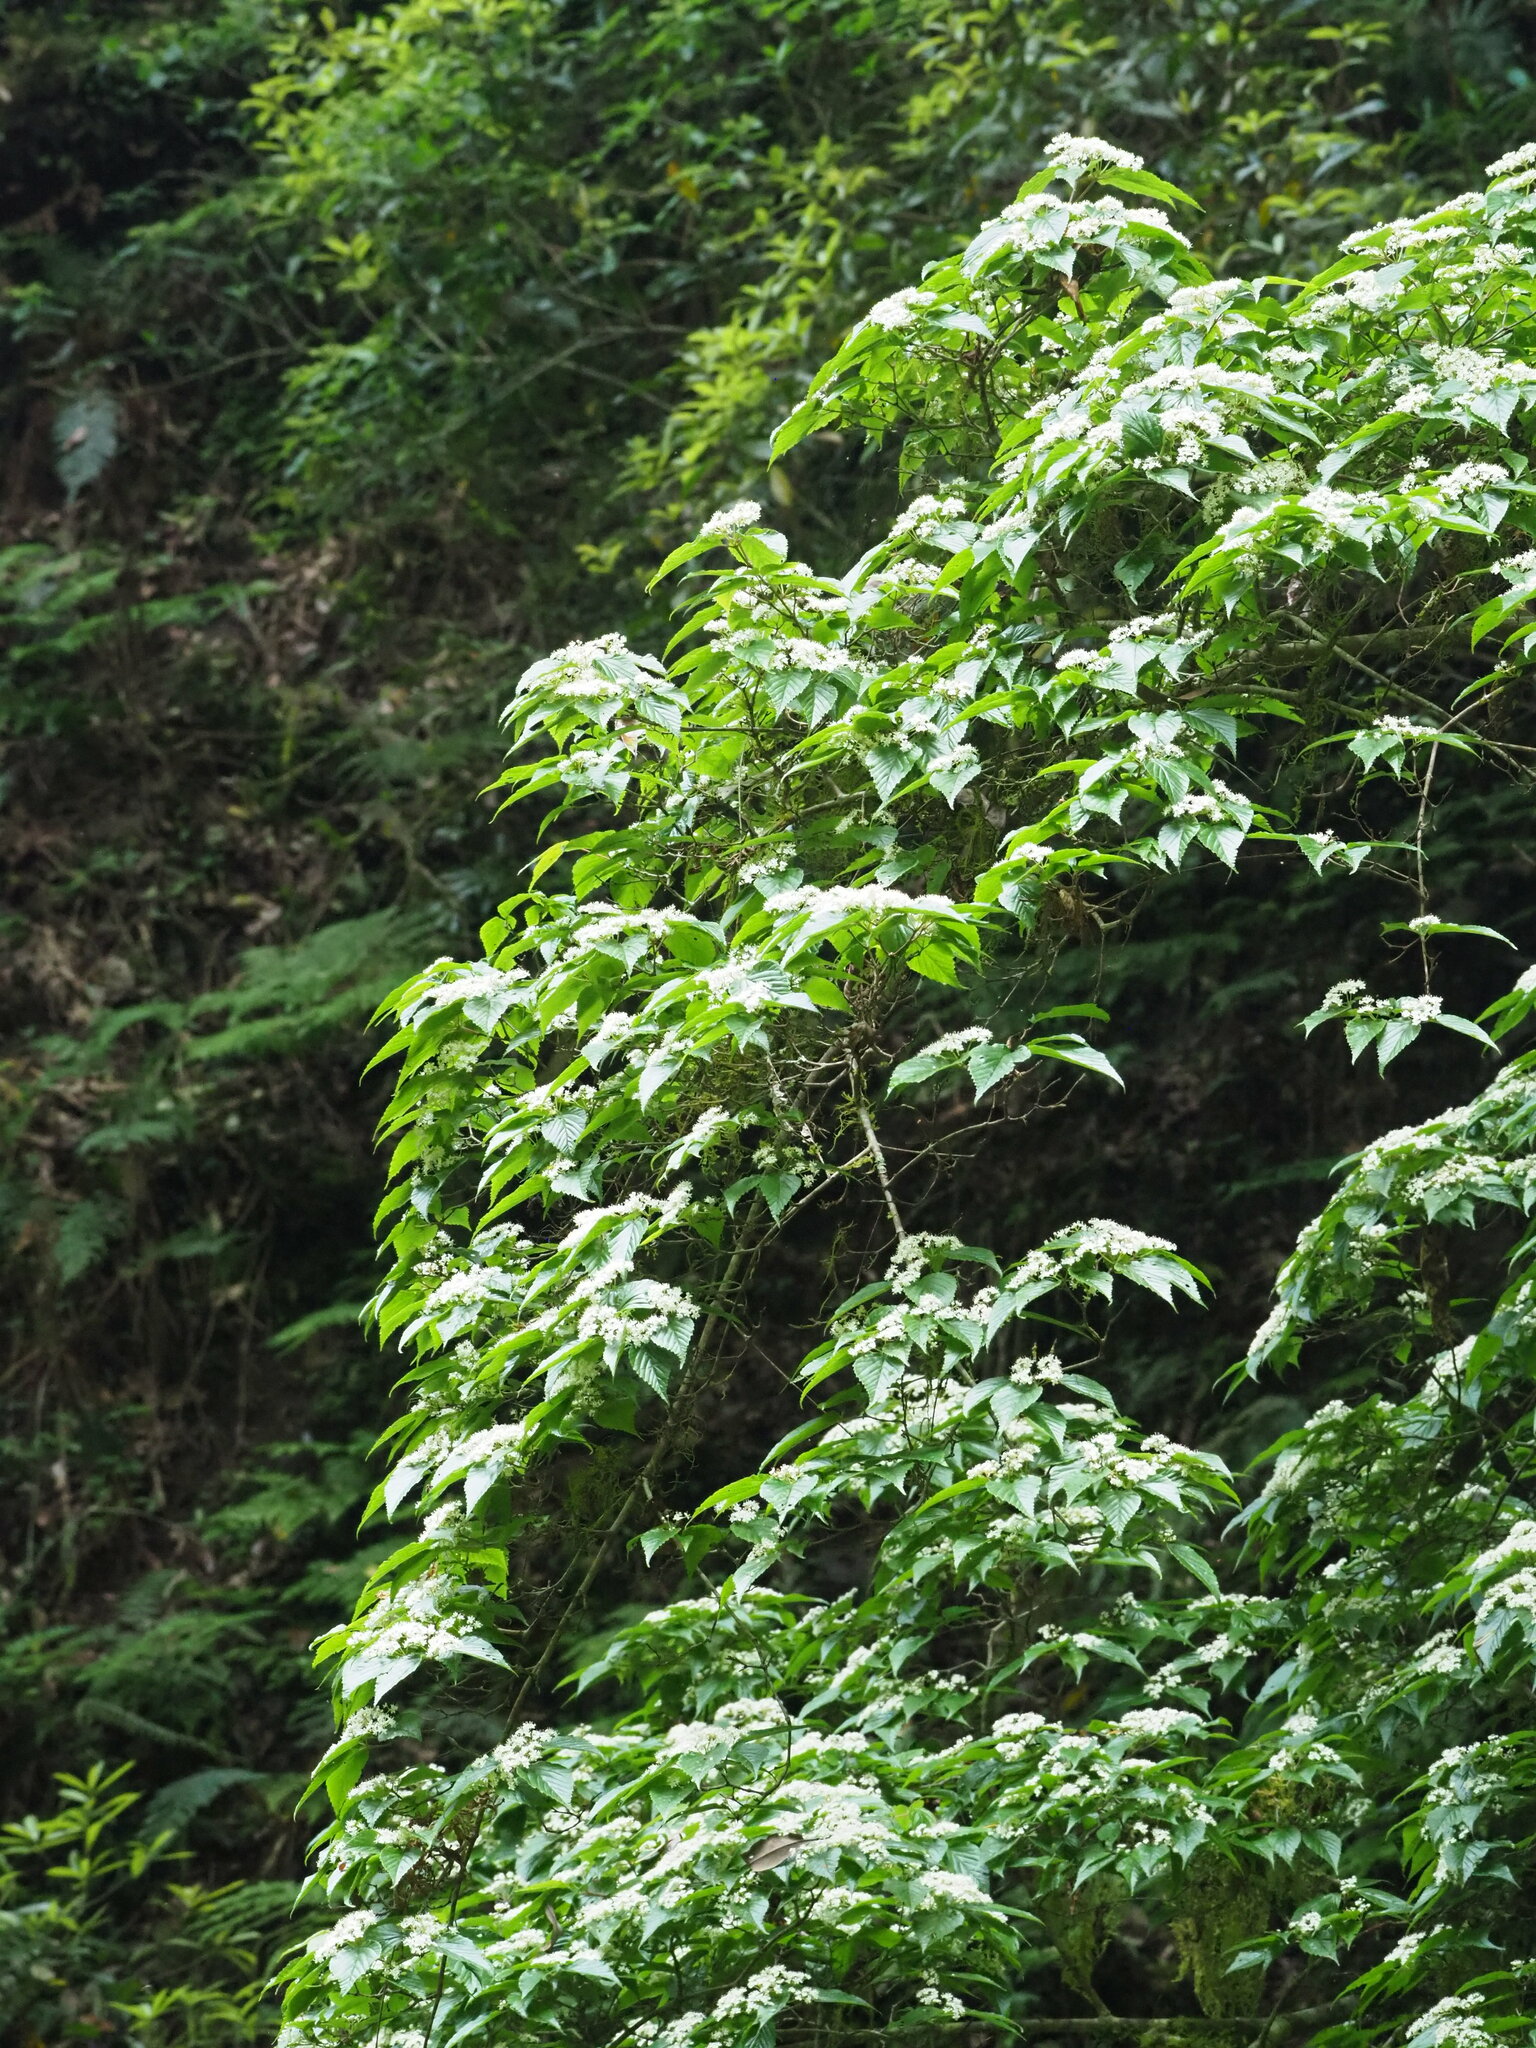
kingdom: Plantae
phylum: Tracheophyta
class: Magnoliopsida
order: Dipsacales
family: Viburnaceae
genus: Viburnum
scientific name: Viburnum luzonicum
